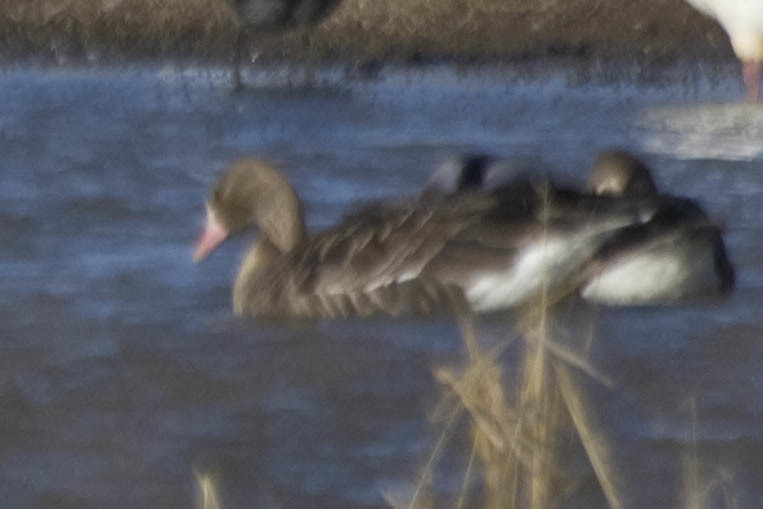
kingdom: Animalia
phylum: Chordata
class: Aves
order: Anseriformes
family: Anatidae
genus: Anser
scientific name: Anser albifrons
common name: Greater white-fronted goose
